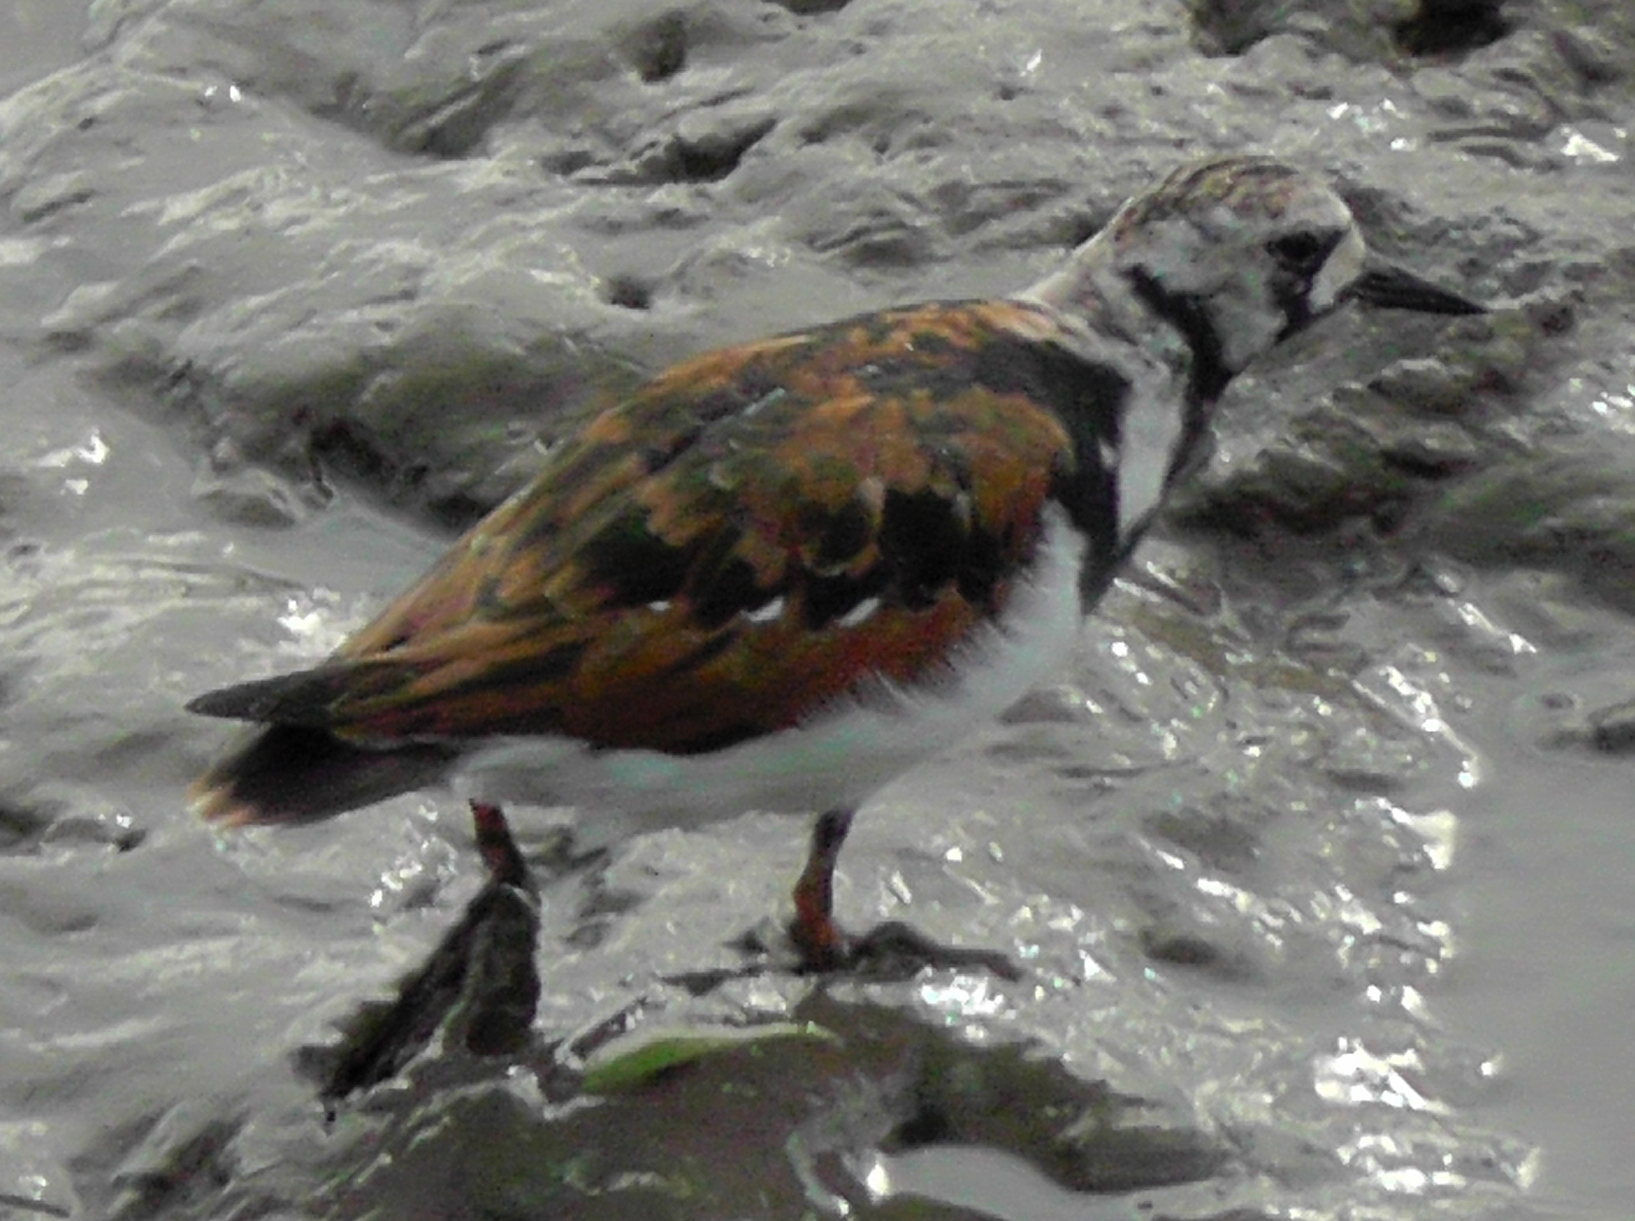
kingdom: Animalia
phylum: Chordata
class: Aves
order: Charadriiformes
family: Scolopacidae
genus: Arenaria
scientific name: Arenaria interpres
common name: Ruddy turnstone
